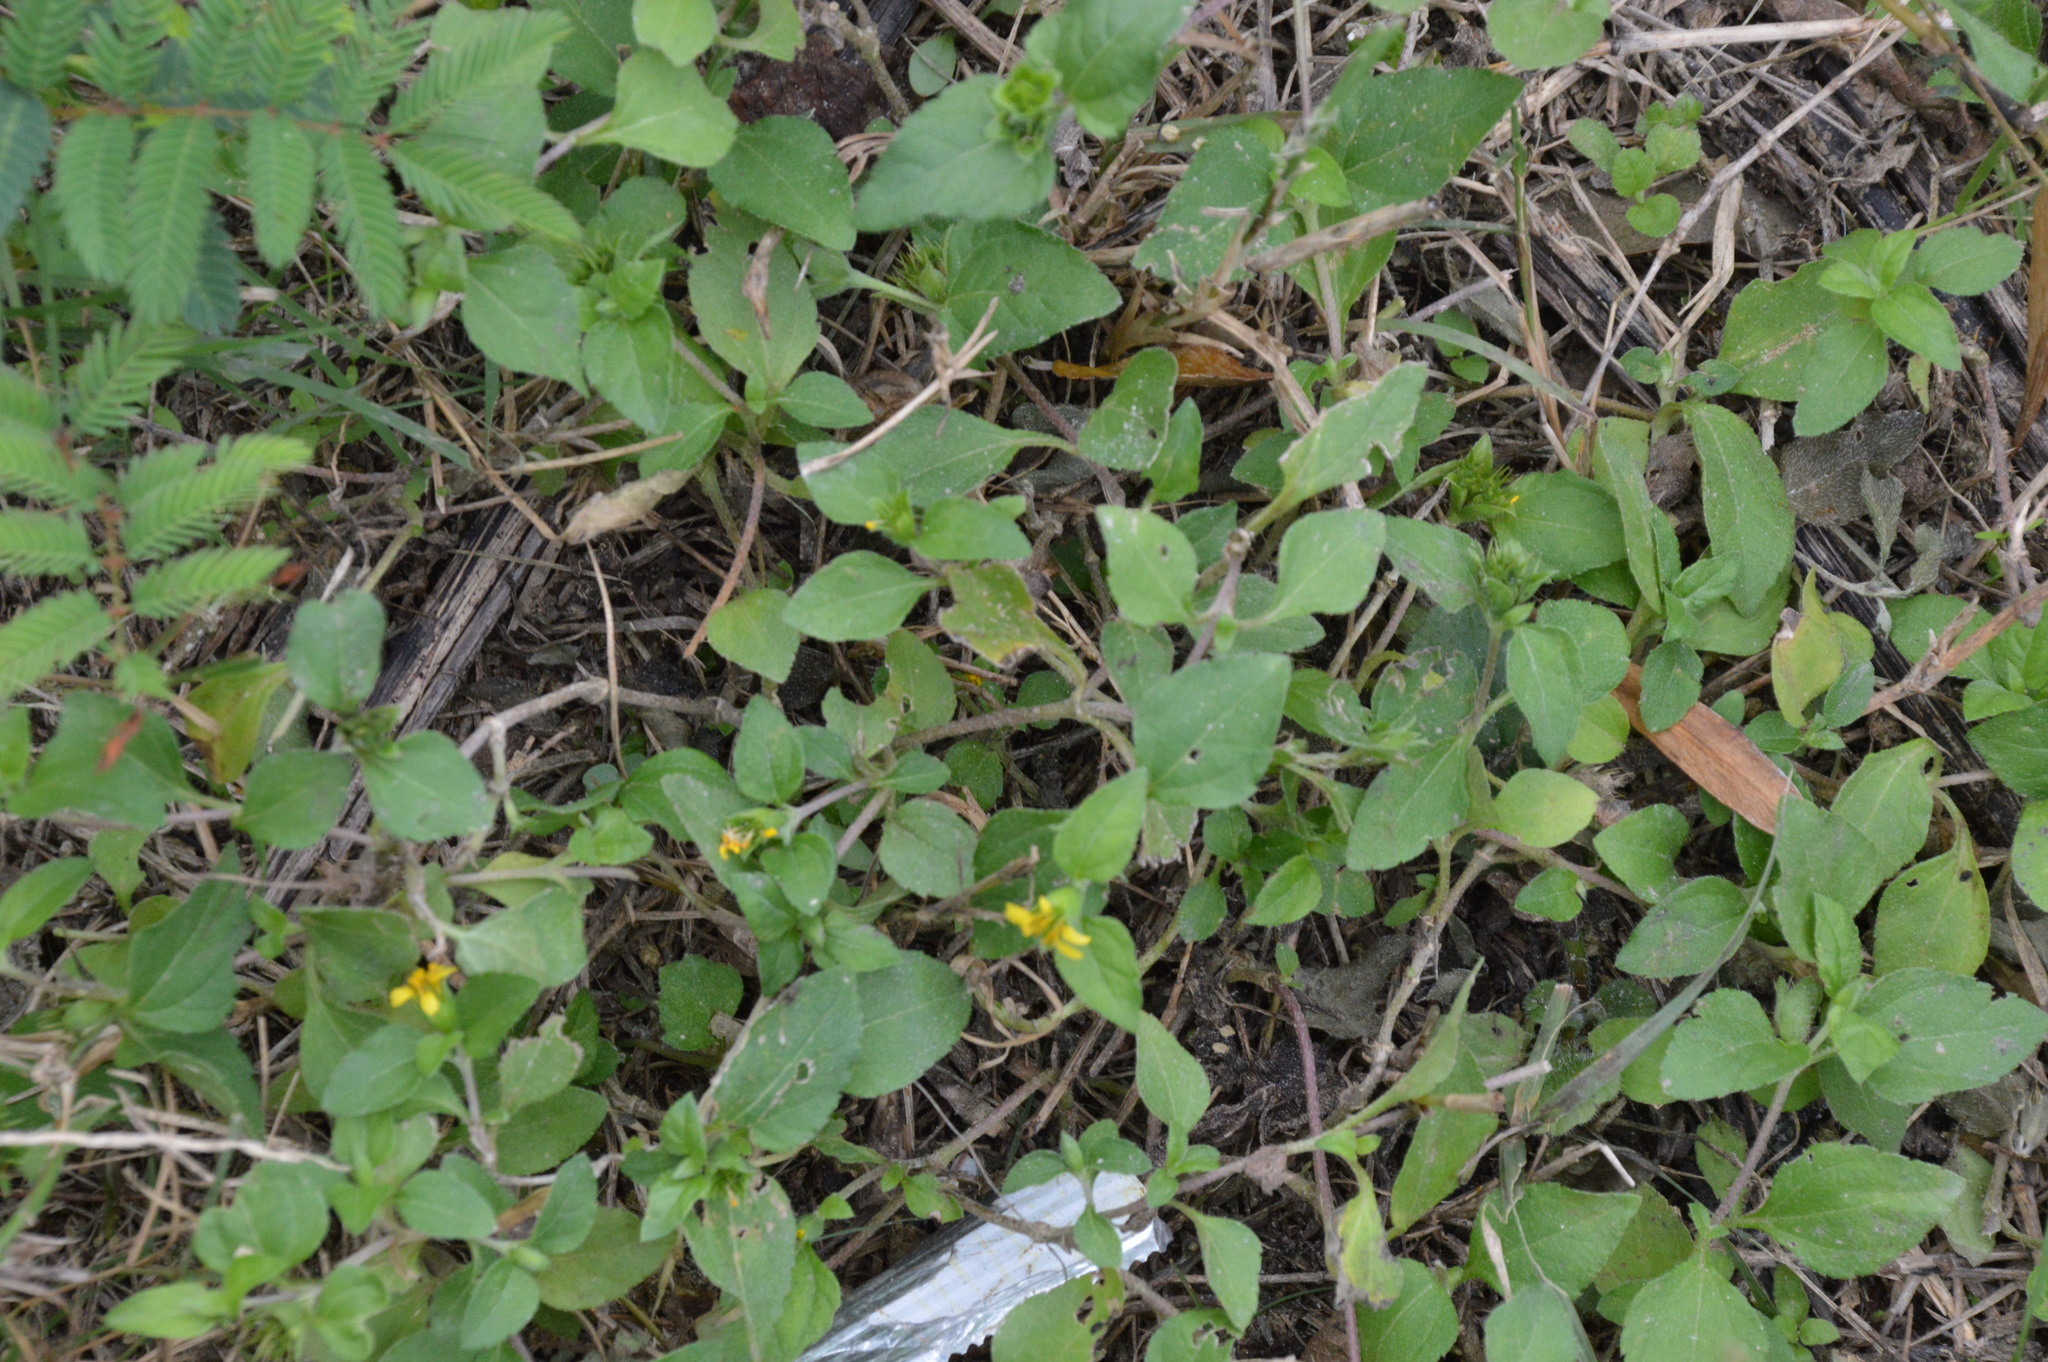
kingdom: Plantae
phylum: Tracheophyta
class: Magnoliopsida
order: Asterales
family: Asteraceae
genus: Calyptocarpus
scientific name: Calyptocarpus vialis
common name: Straggler daisy
